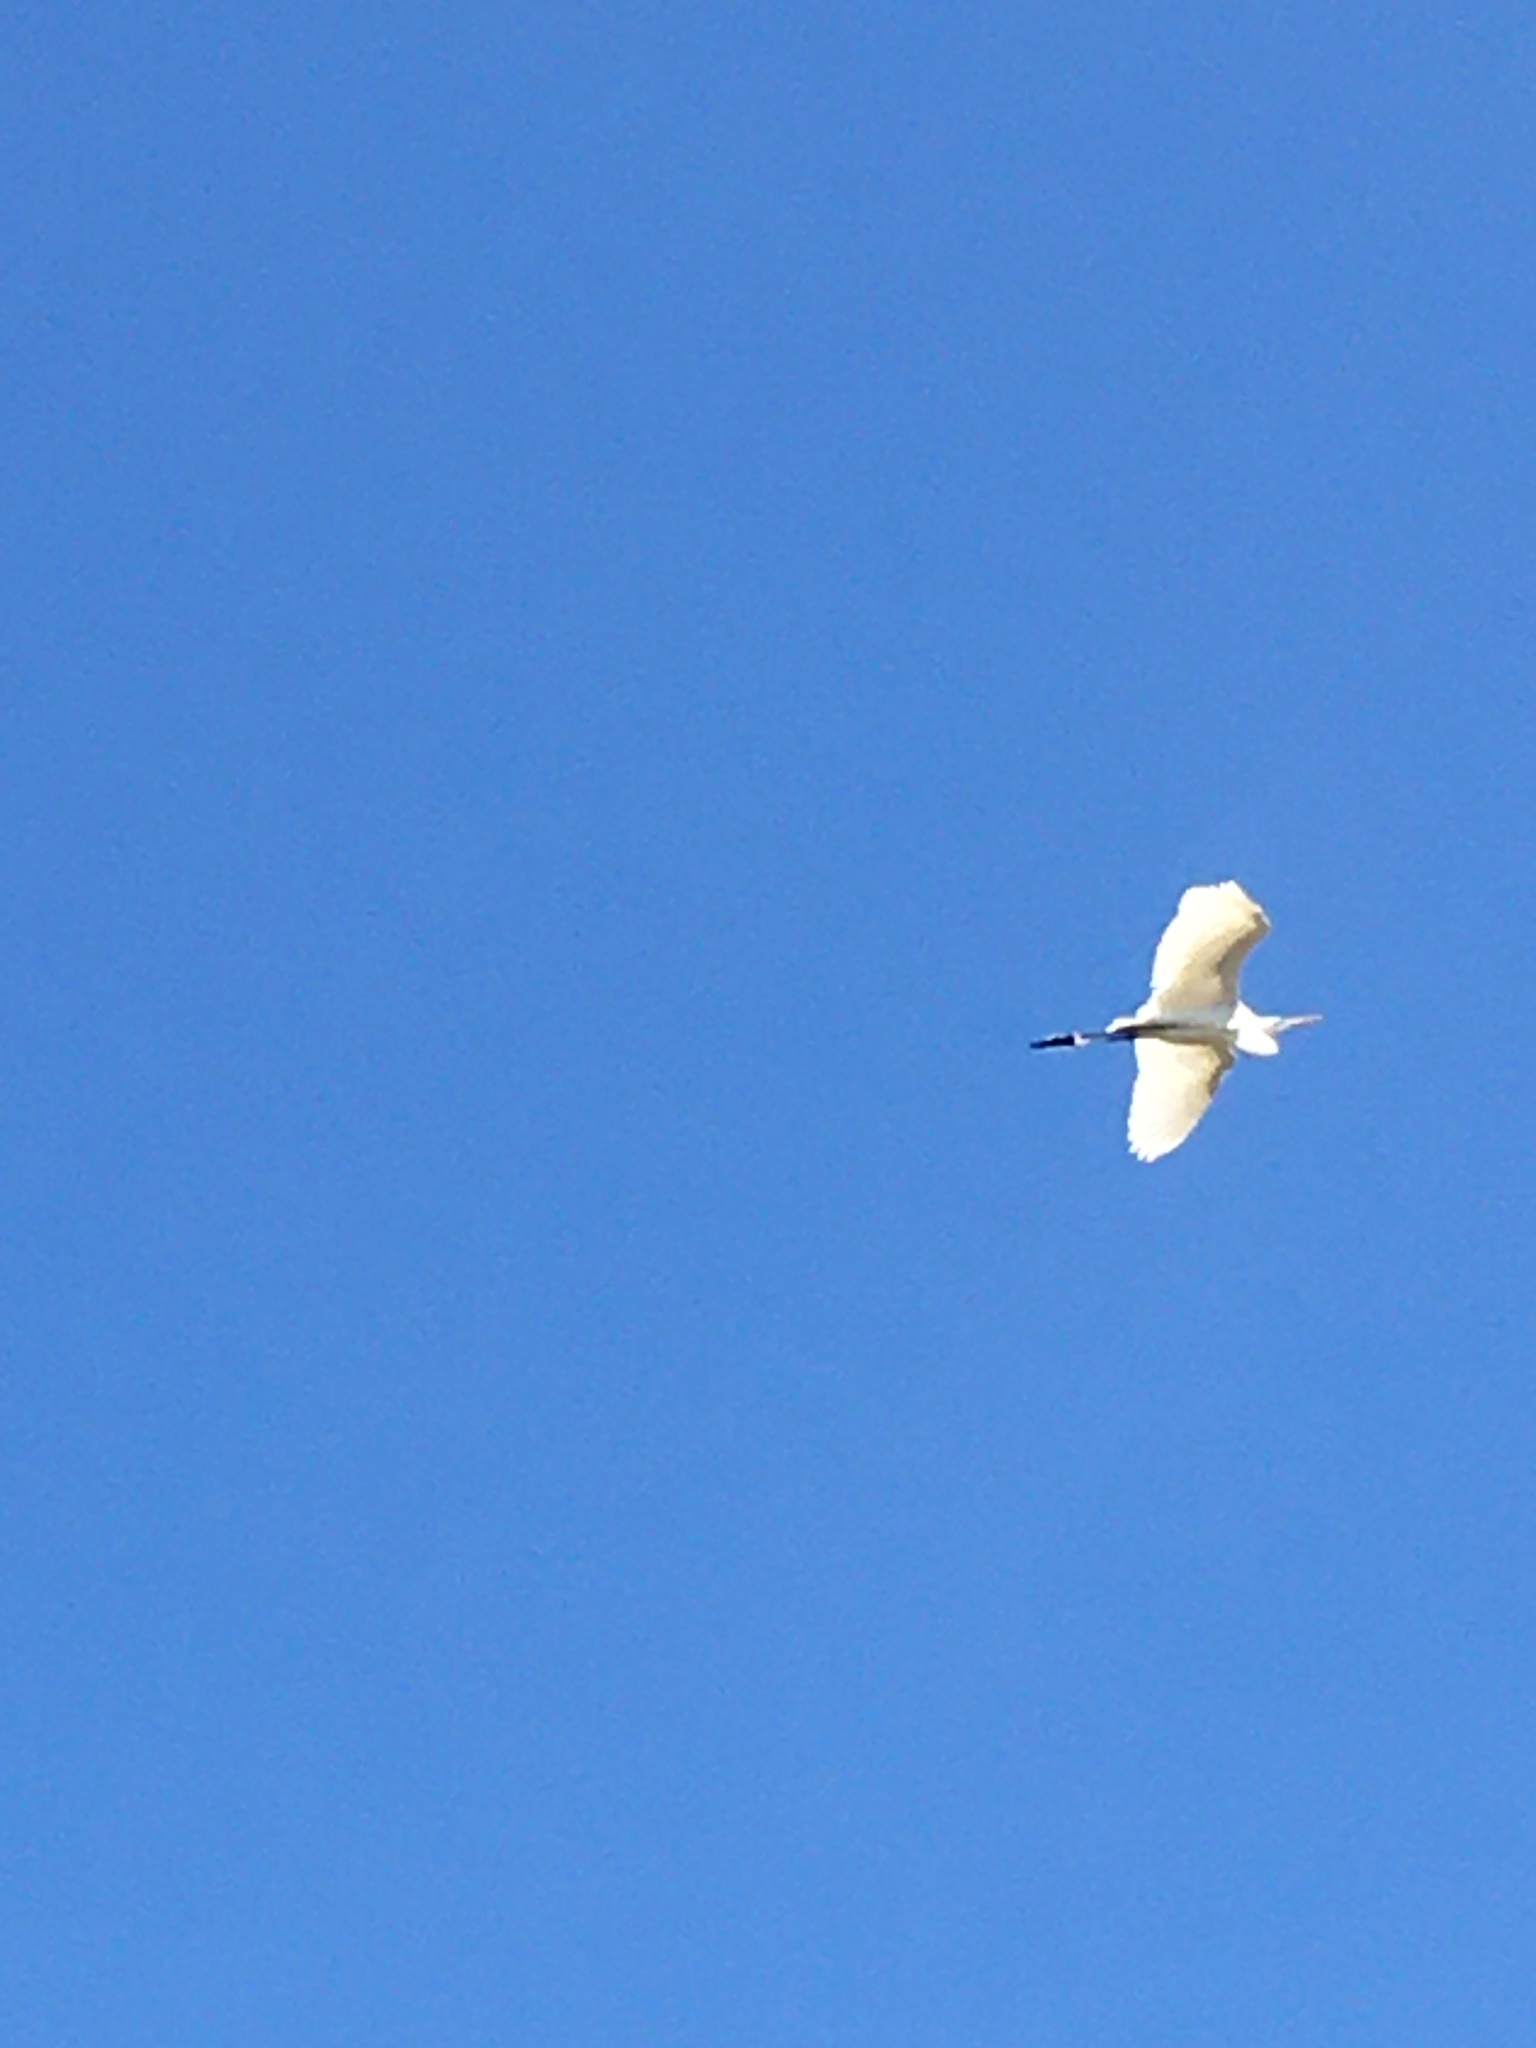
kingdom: Animalia
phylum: Chordata
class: Aves
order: Pelecaniformes
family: Ardeidae
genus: Ardea
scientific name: Ardea alba
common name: Great egret
